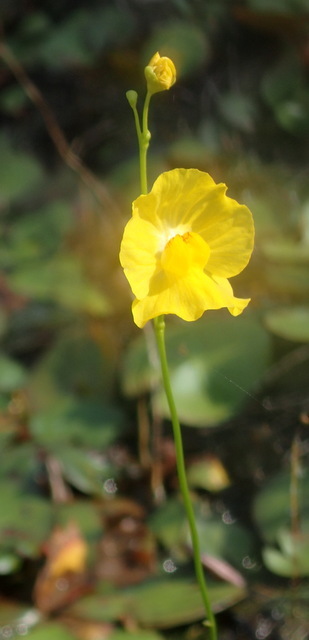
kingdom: Plantae
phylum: Tracheophyta
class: Magnoliopsida
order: Lamiales
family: Lentibulariaceae
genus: Utricularia
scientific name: Utricularia gibba
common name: Humped bladderwort
